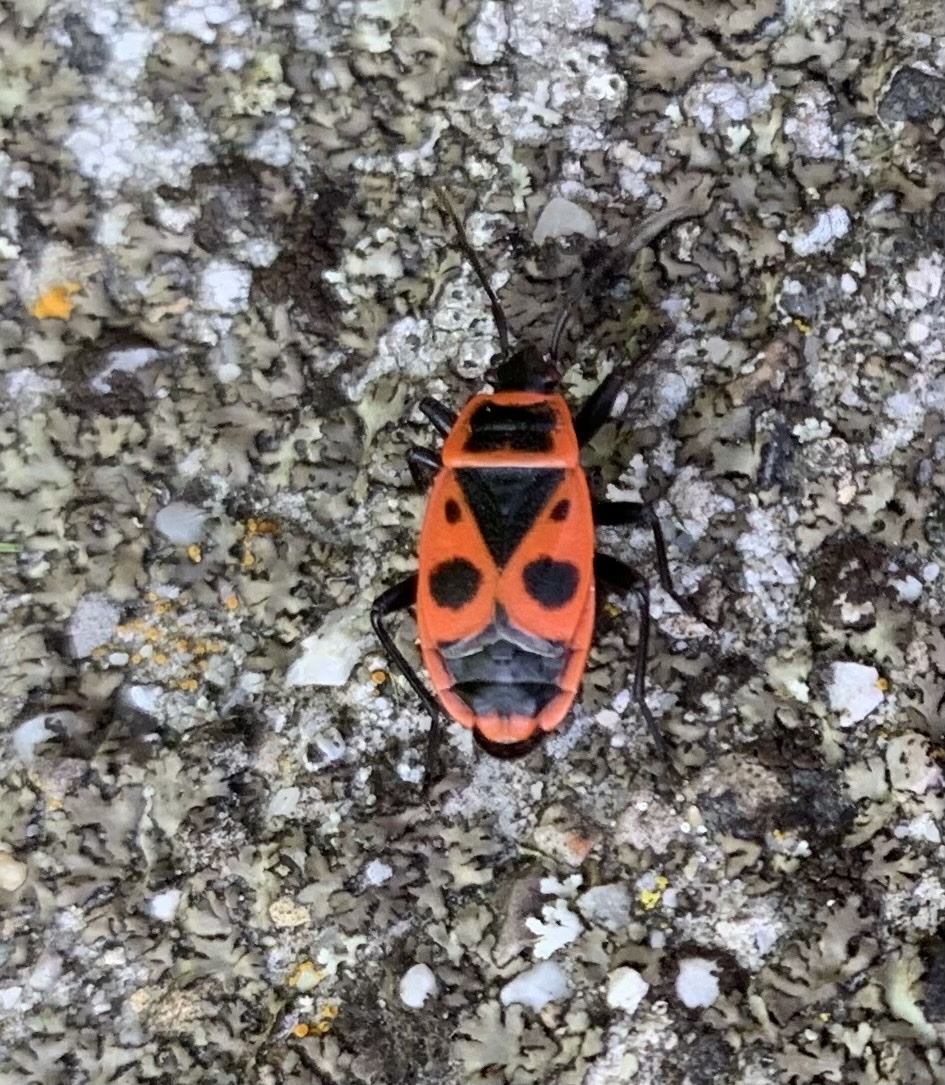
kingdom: Animalia
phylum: Arthropoda
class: Insecta
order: Hemiptera
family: Pyrrhocoridae
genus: Pyrrhocoris
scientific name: Pyrrhocoris apterus
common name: Firebug
